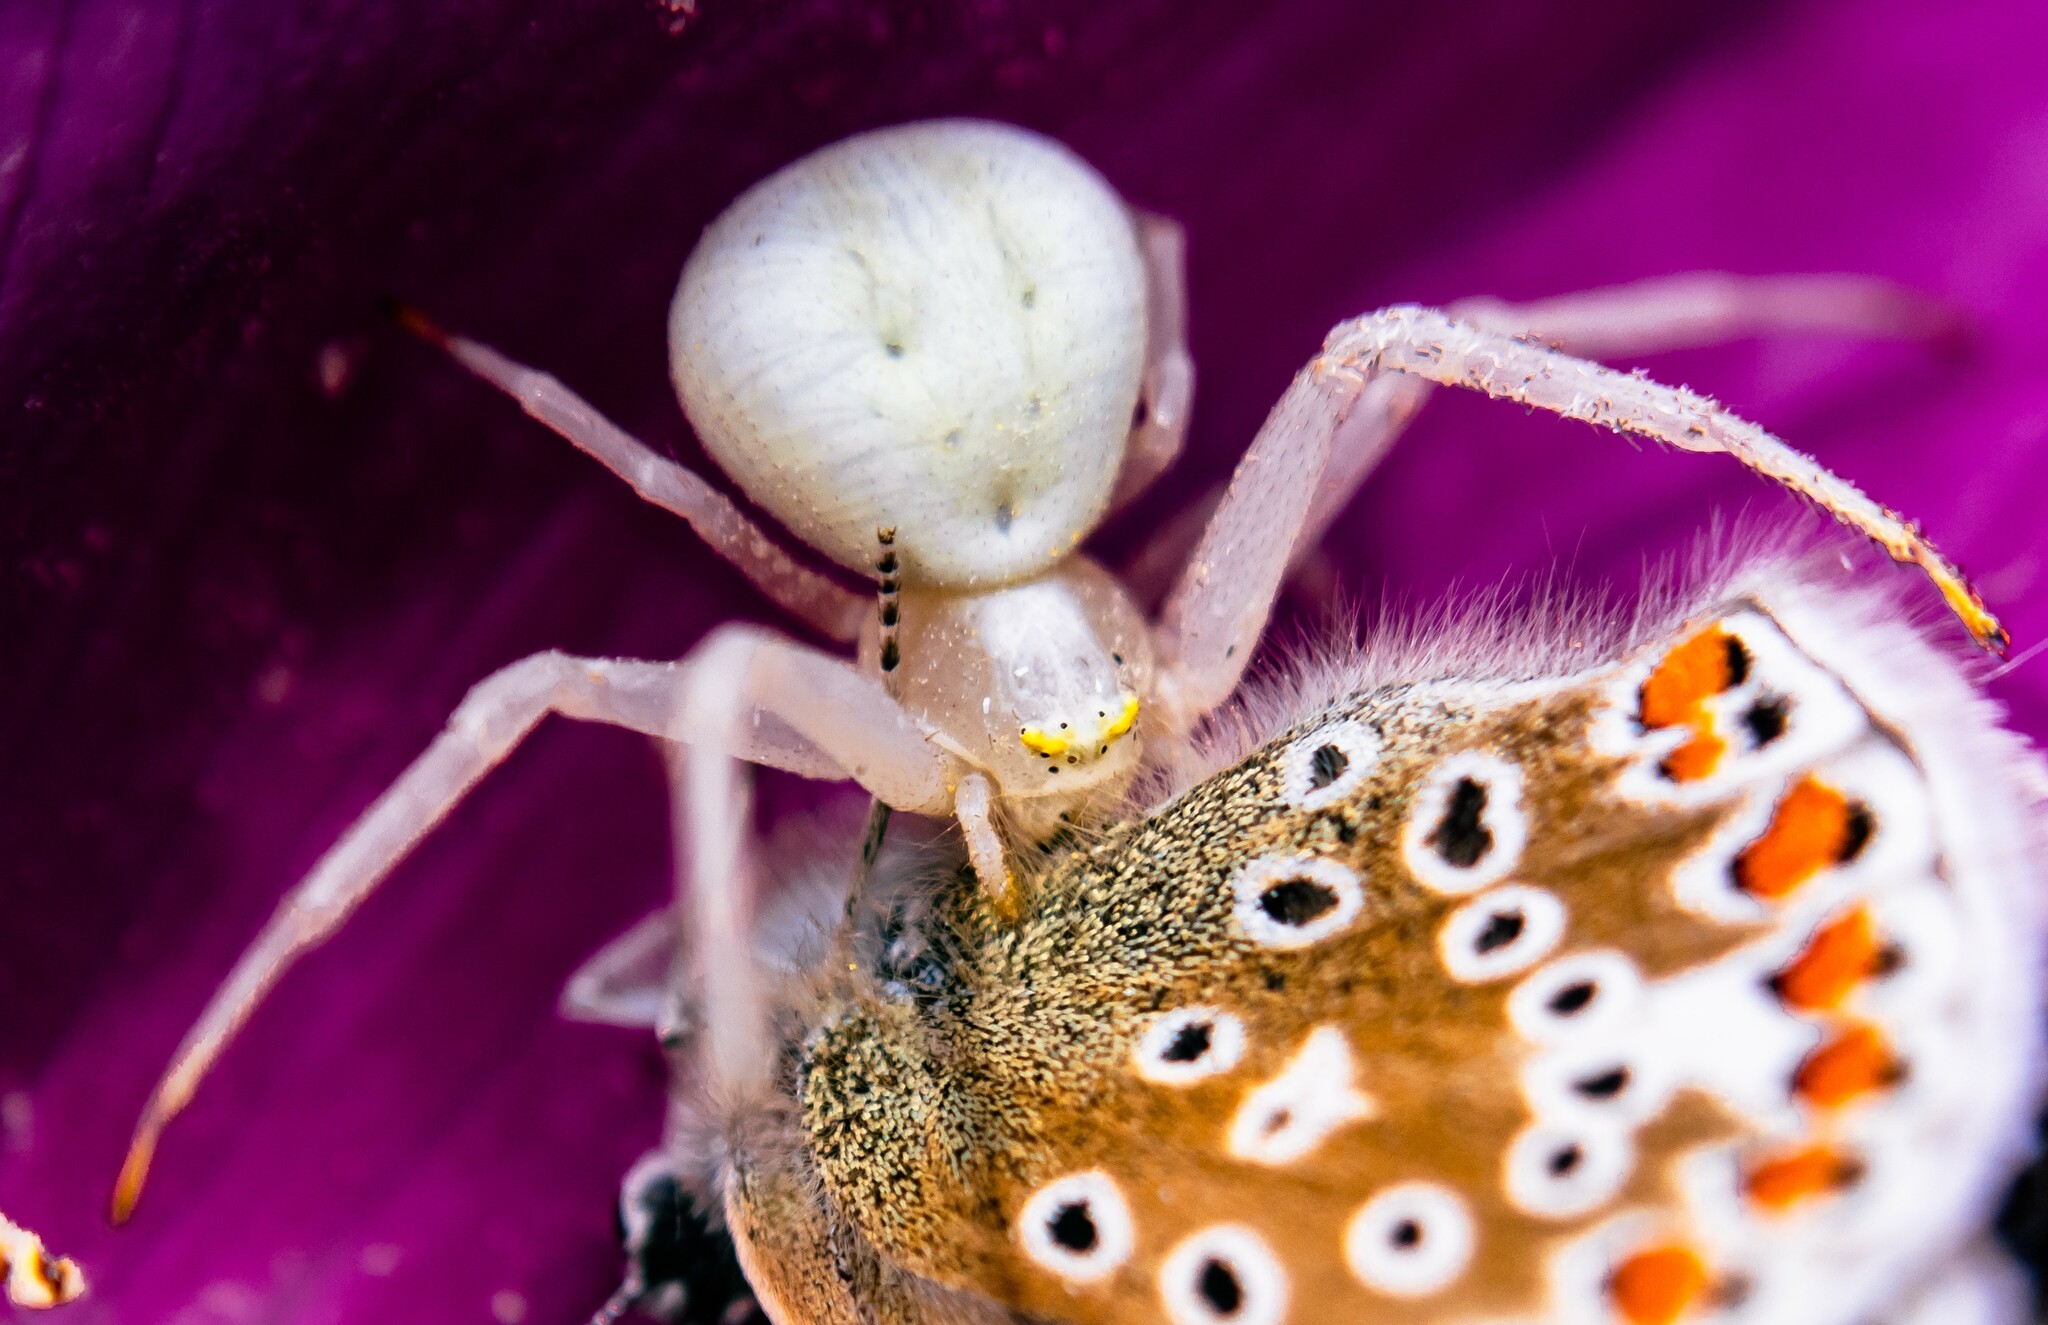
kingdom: Animalia
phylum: Arthropoda
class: Arachnida
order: Araneae
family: Thomisidae
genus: Misumena
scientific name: Misumena vatia
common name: Goldenrod crab spider
